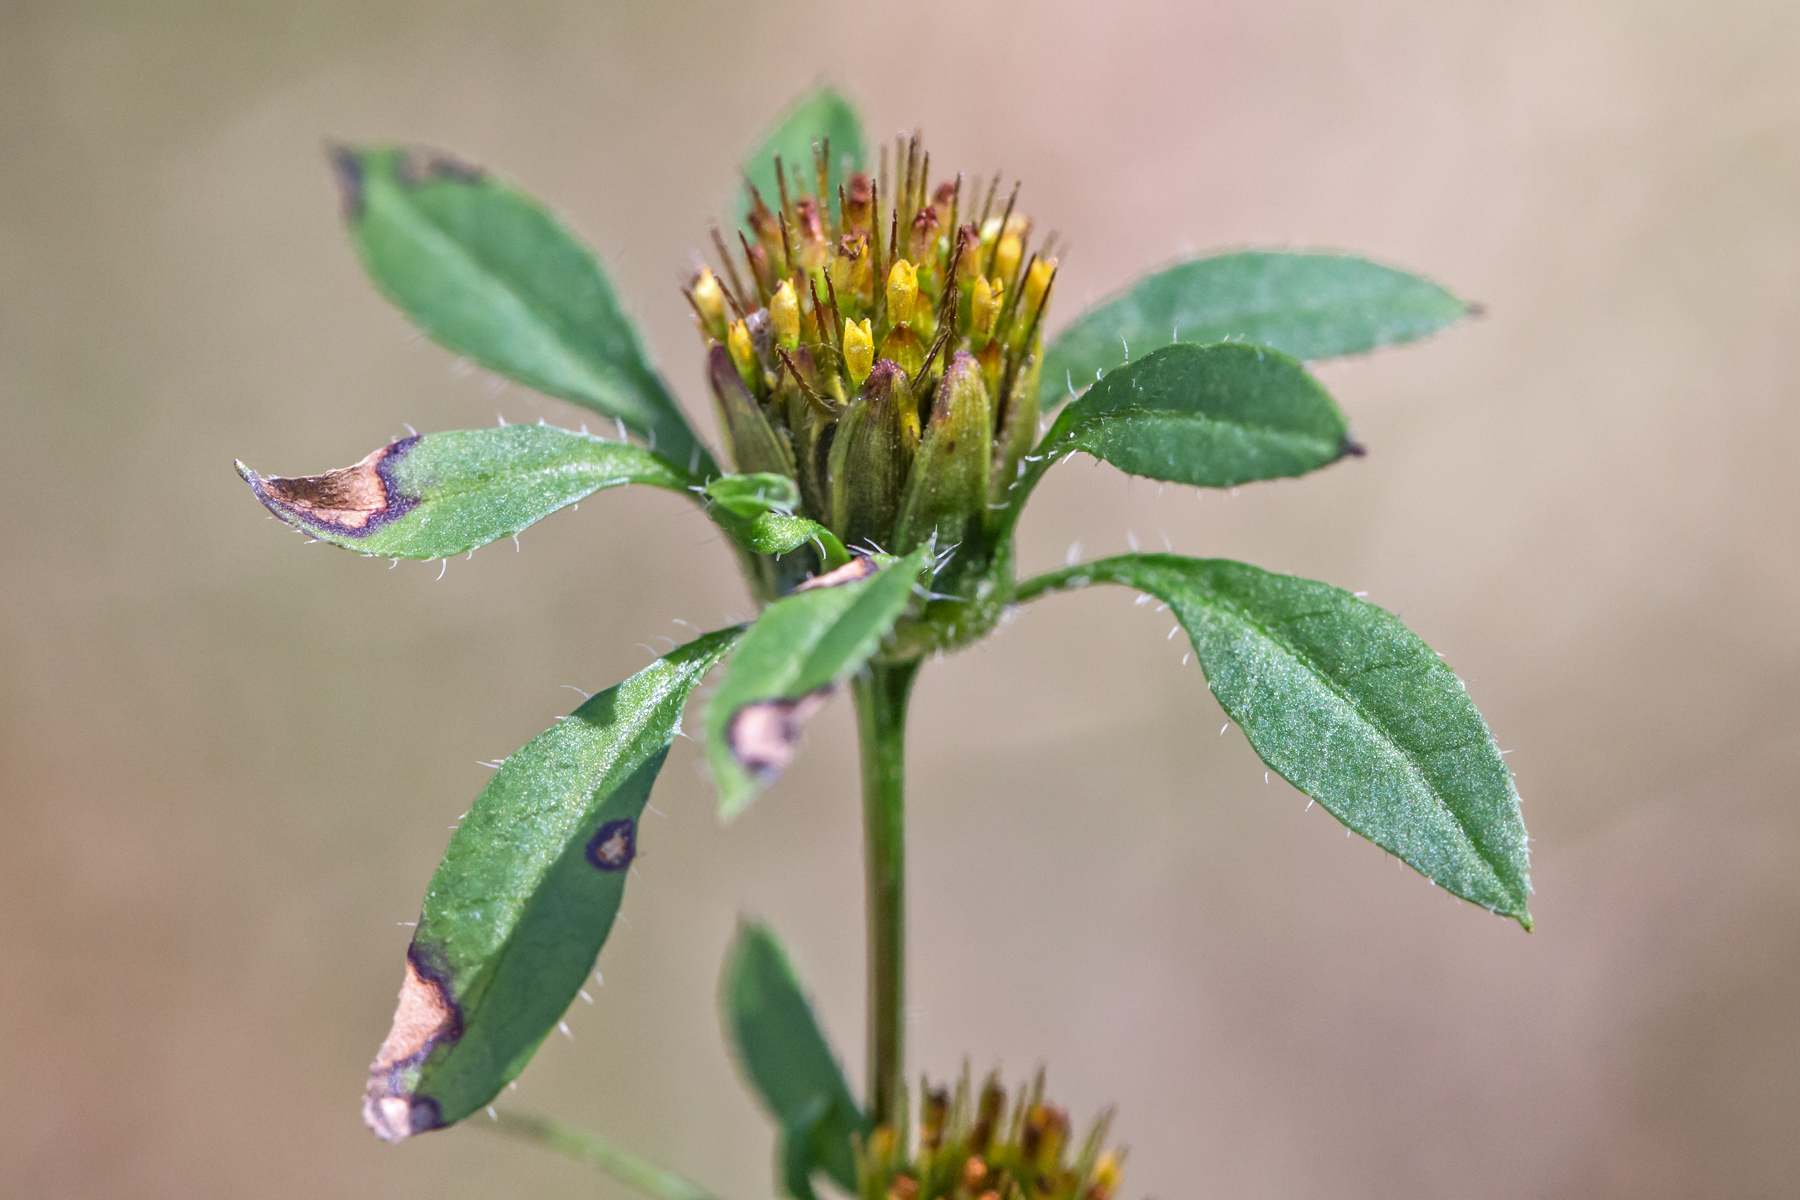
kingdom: Plantae
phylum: Tracheophyta
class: Magnoliopsida
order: Asterales
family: Asteraceae
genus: Bidens
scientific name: Bidens frondosa
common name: Beggarticks
